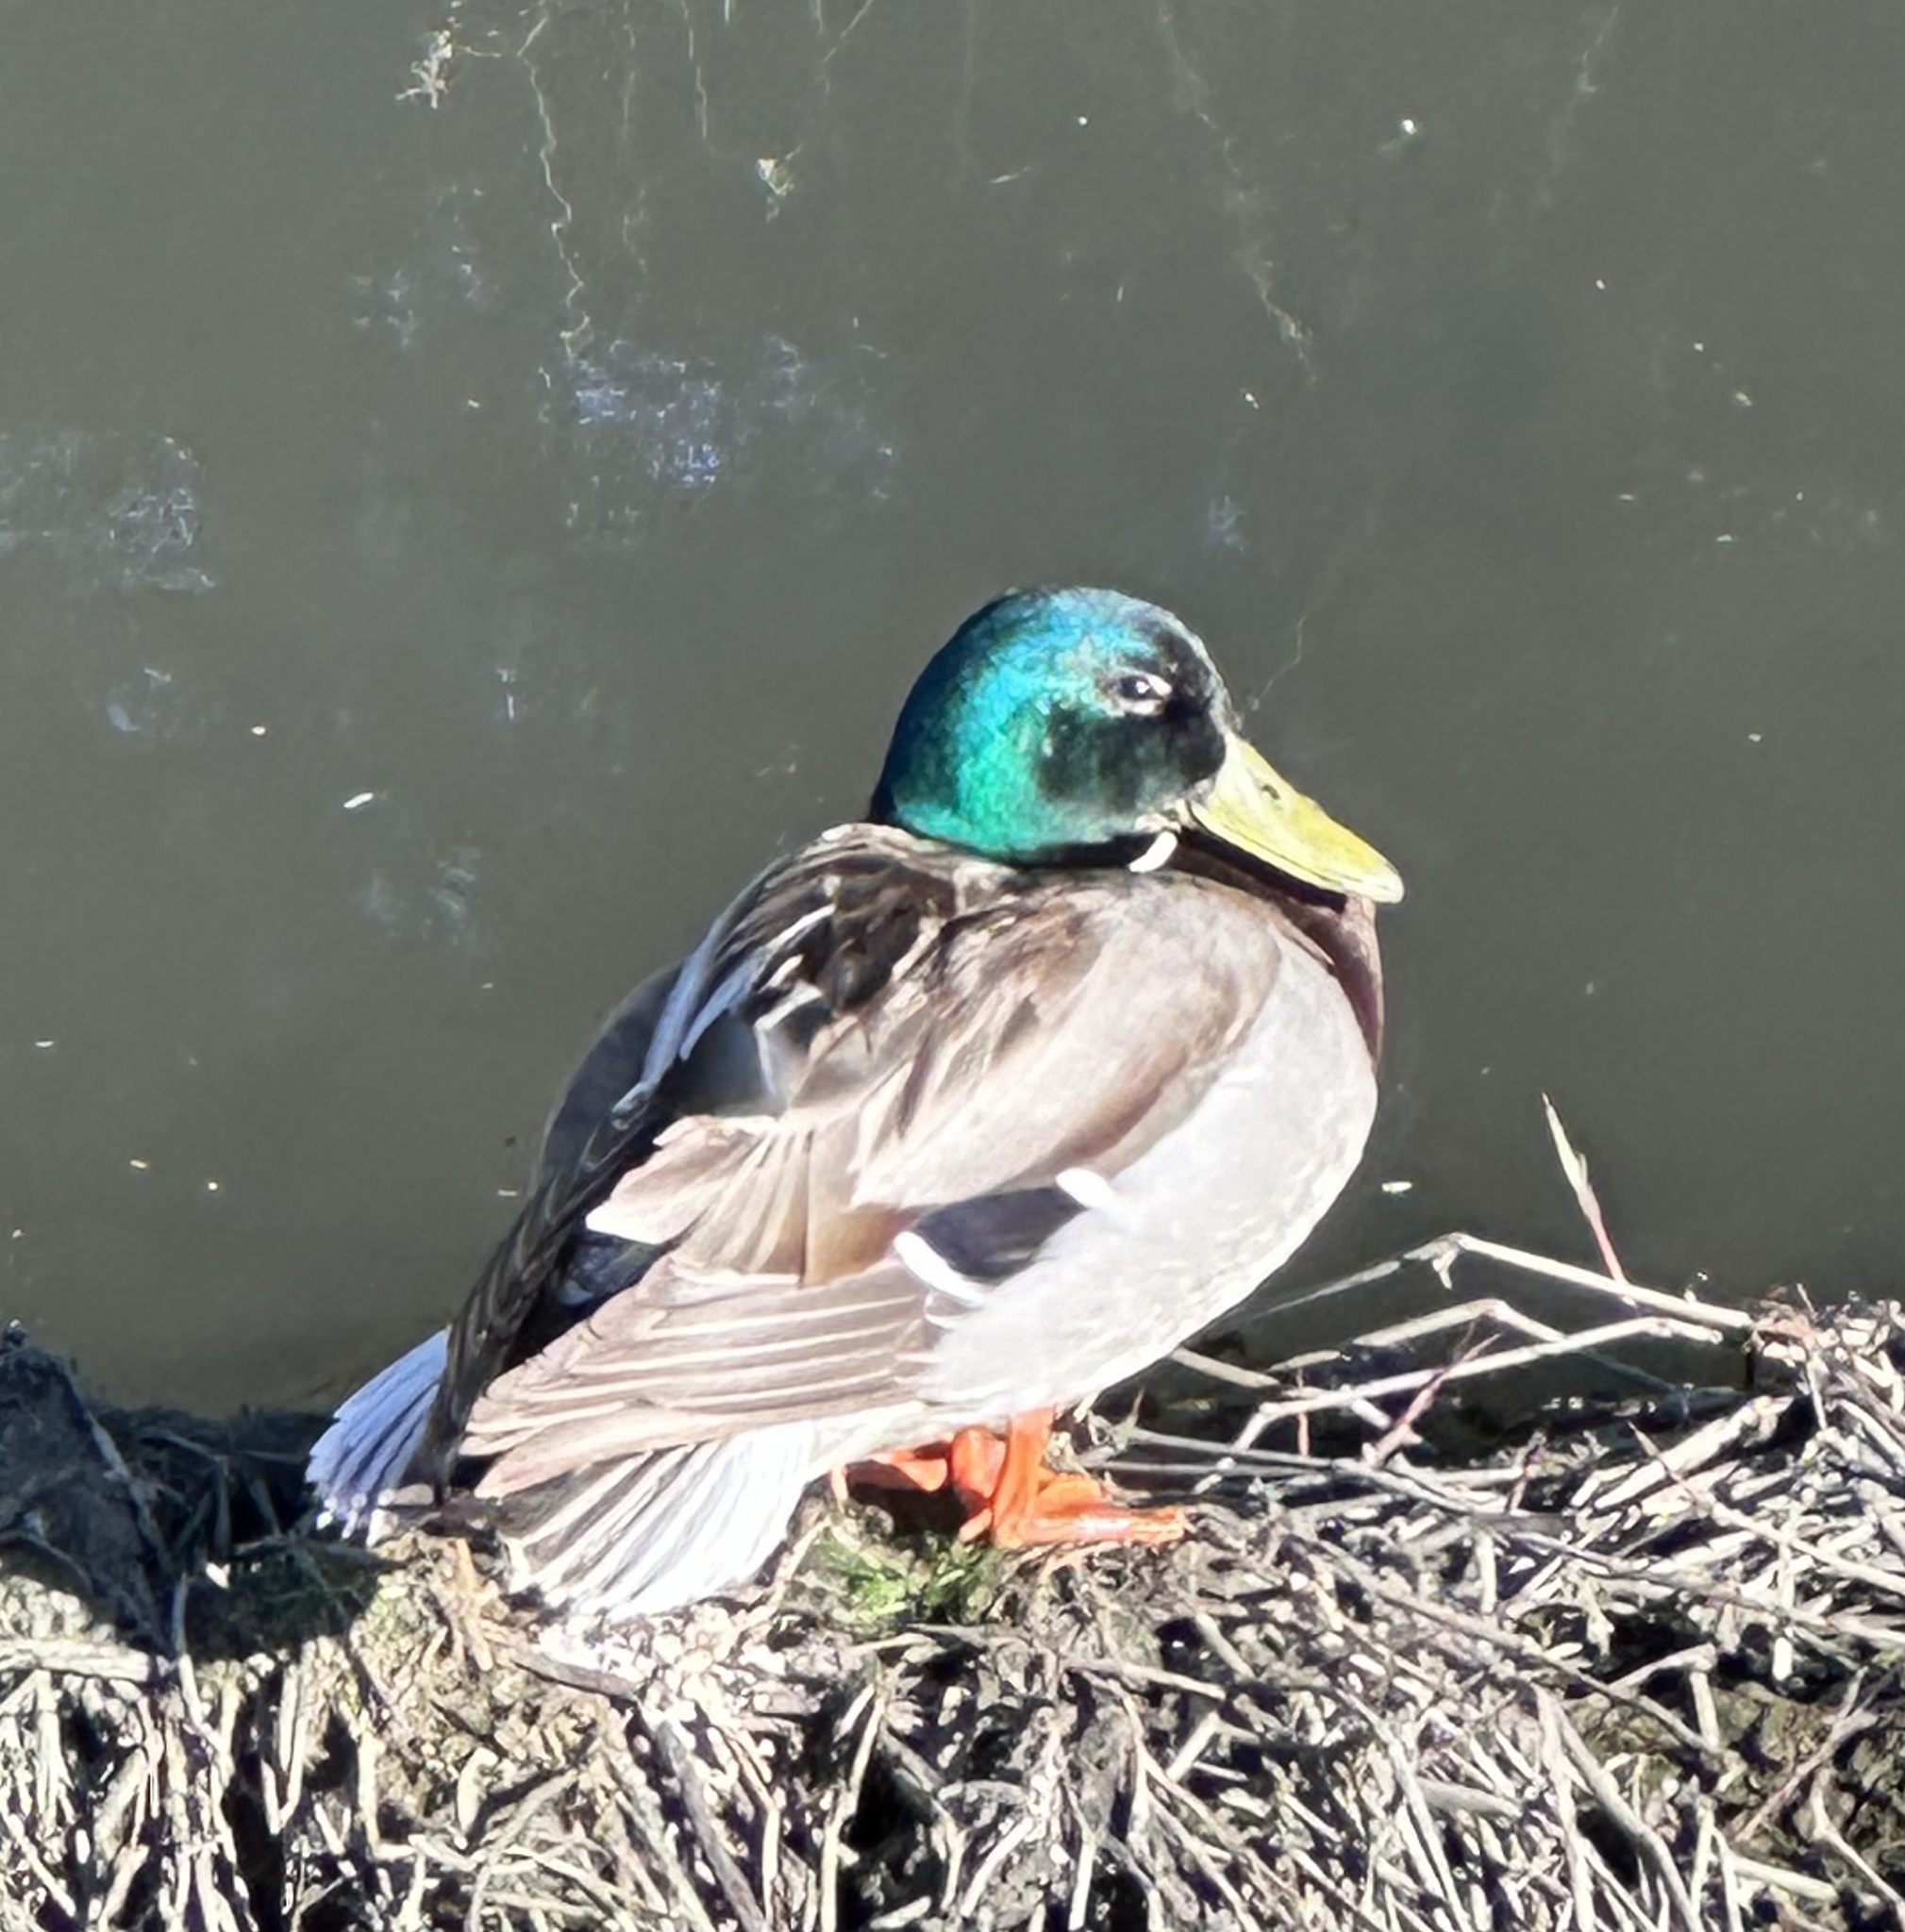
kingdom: Animalia
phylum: Chordata
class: Aves
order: Anseriformes
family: Anatidae
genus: Anas
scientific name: Anas platyrhynchos
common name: Mallard
